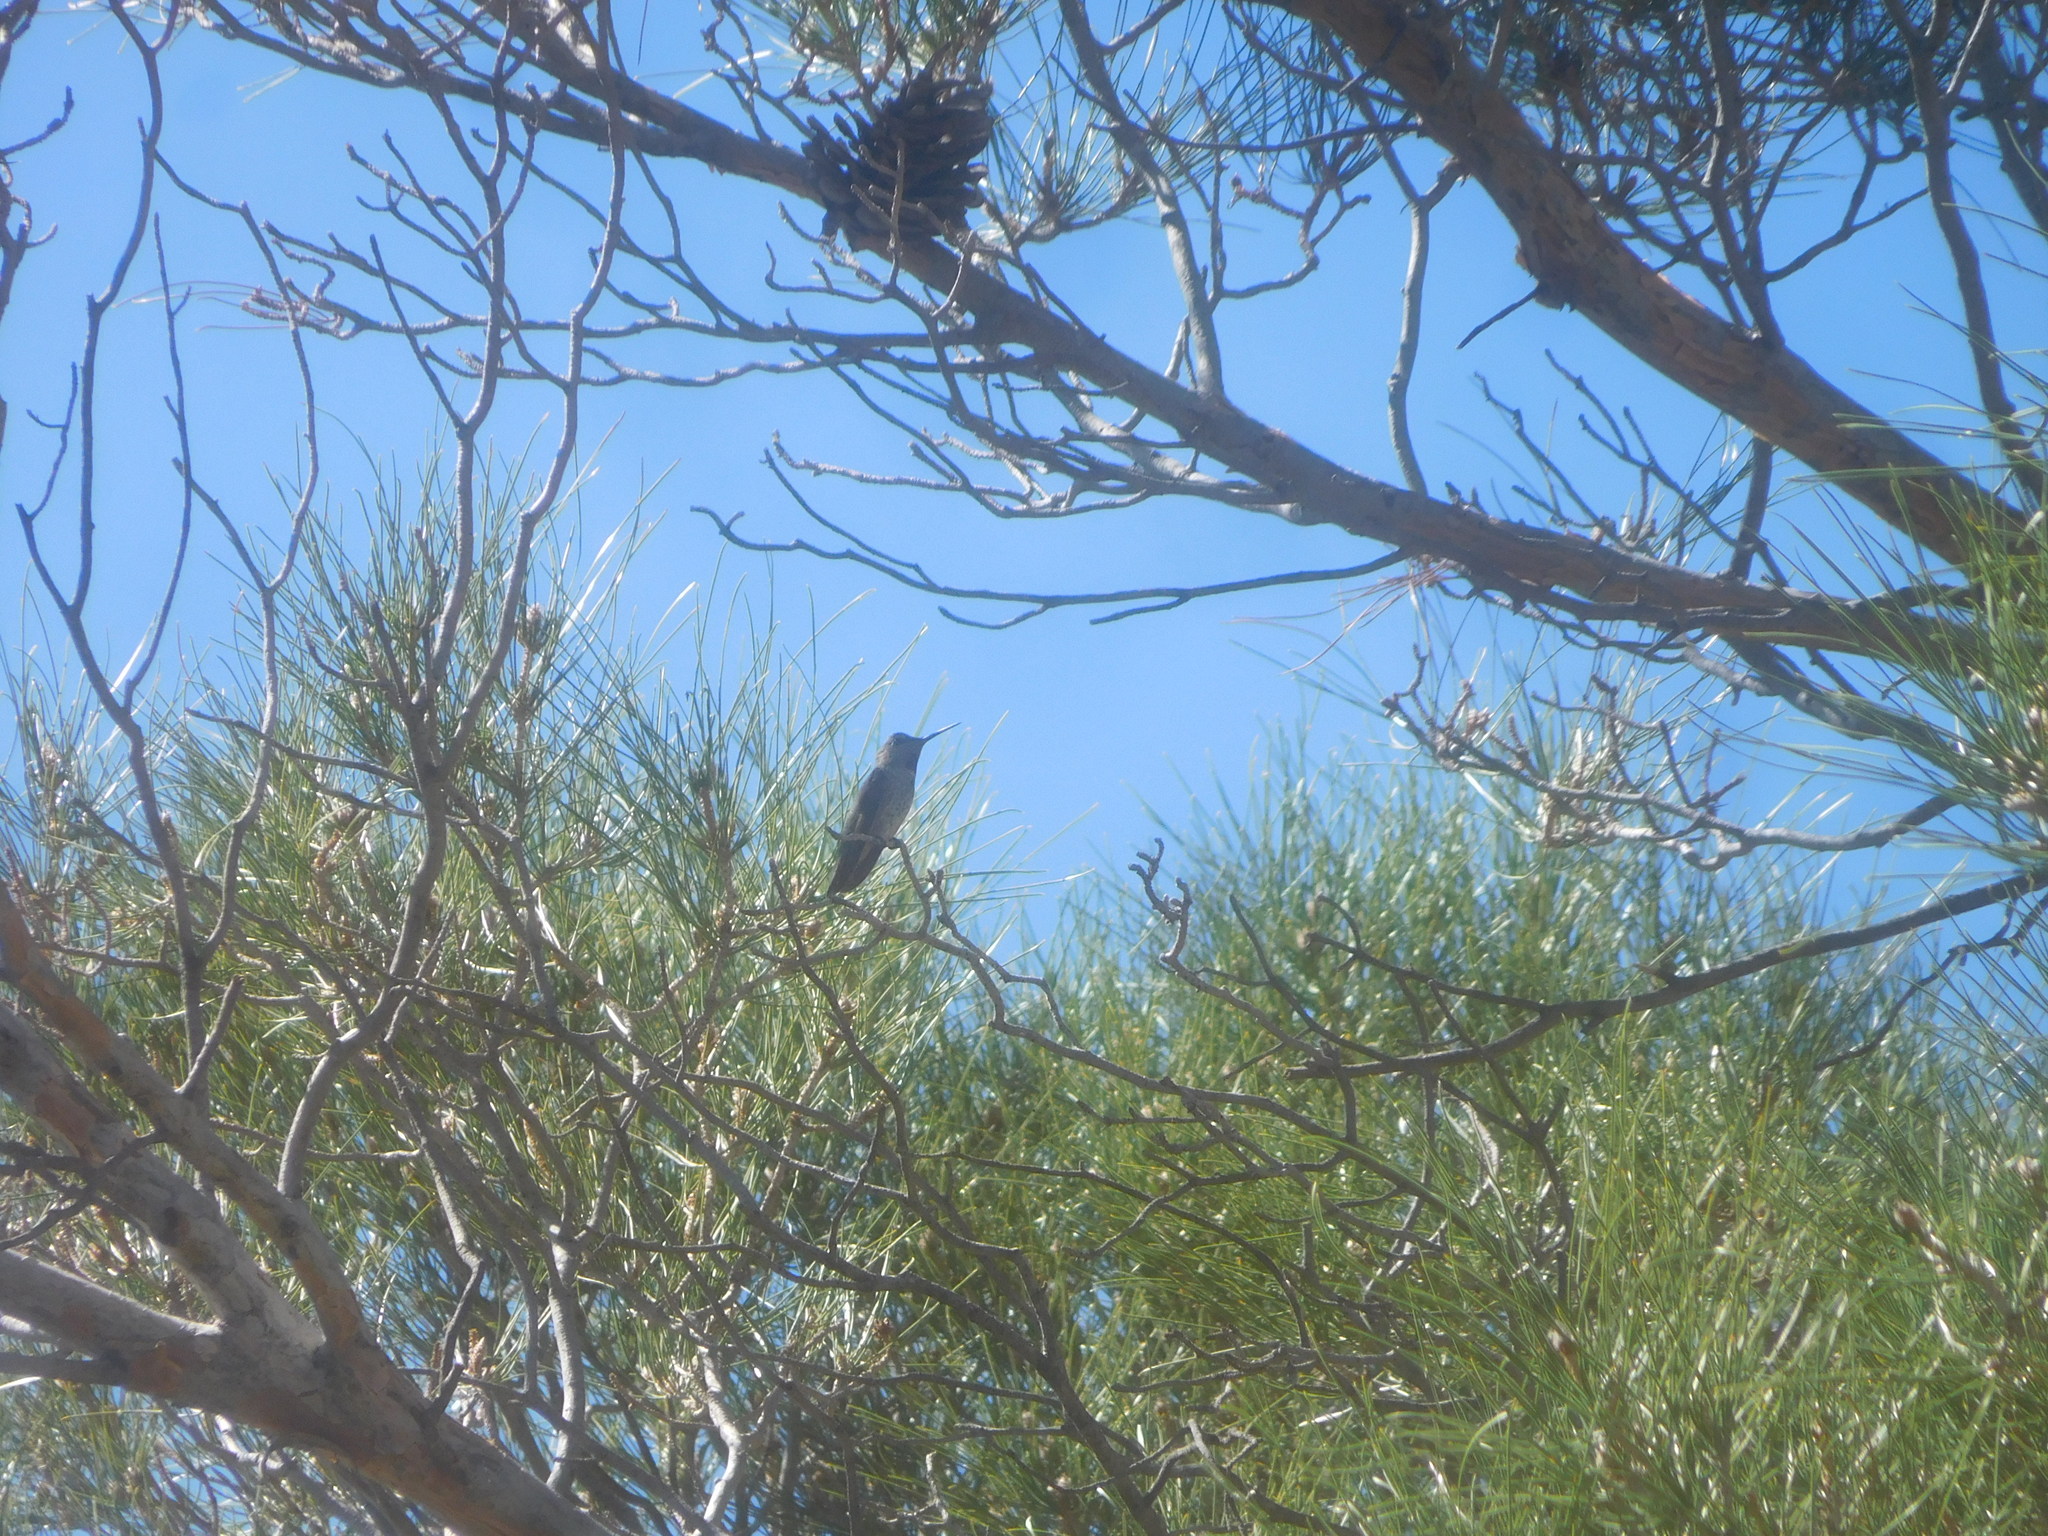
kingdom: Animalia
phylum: Chordata
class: Aves
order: Apodiformes
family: Trochilidae
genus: Calypte
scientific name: Calypte anna
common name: Anna's hummingbird
